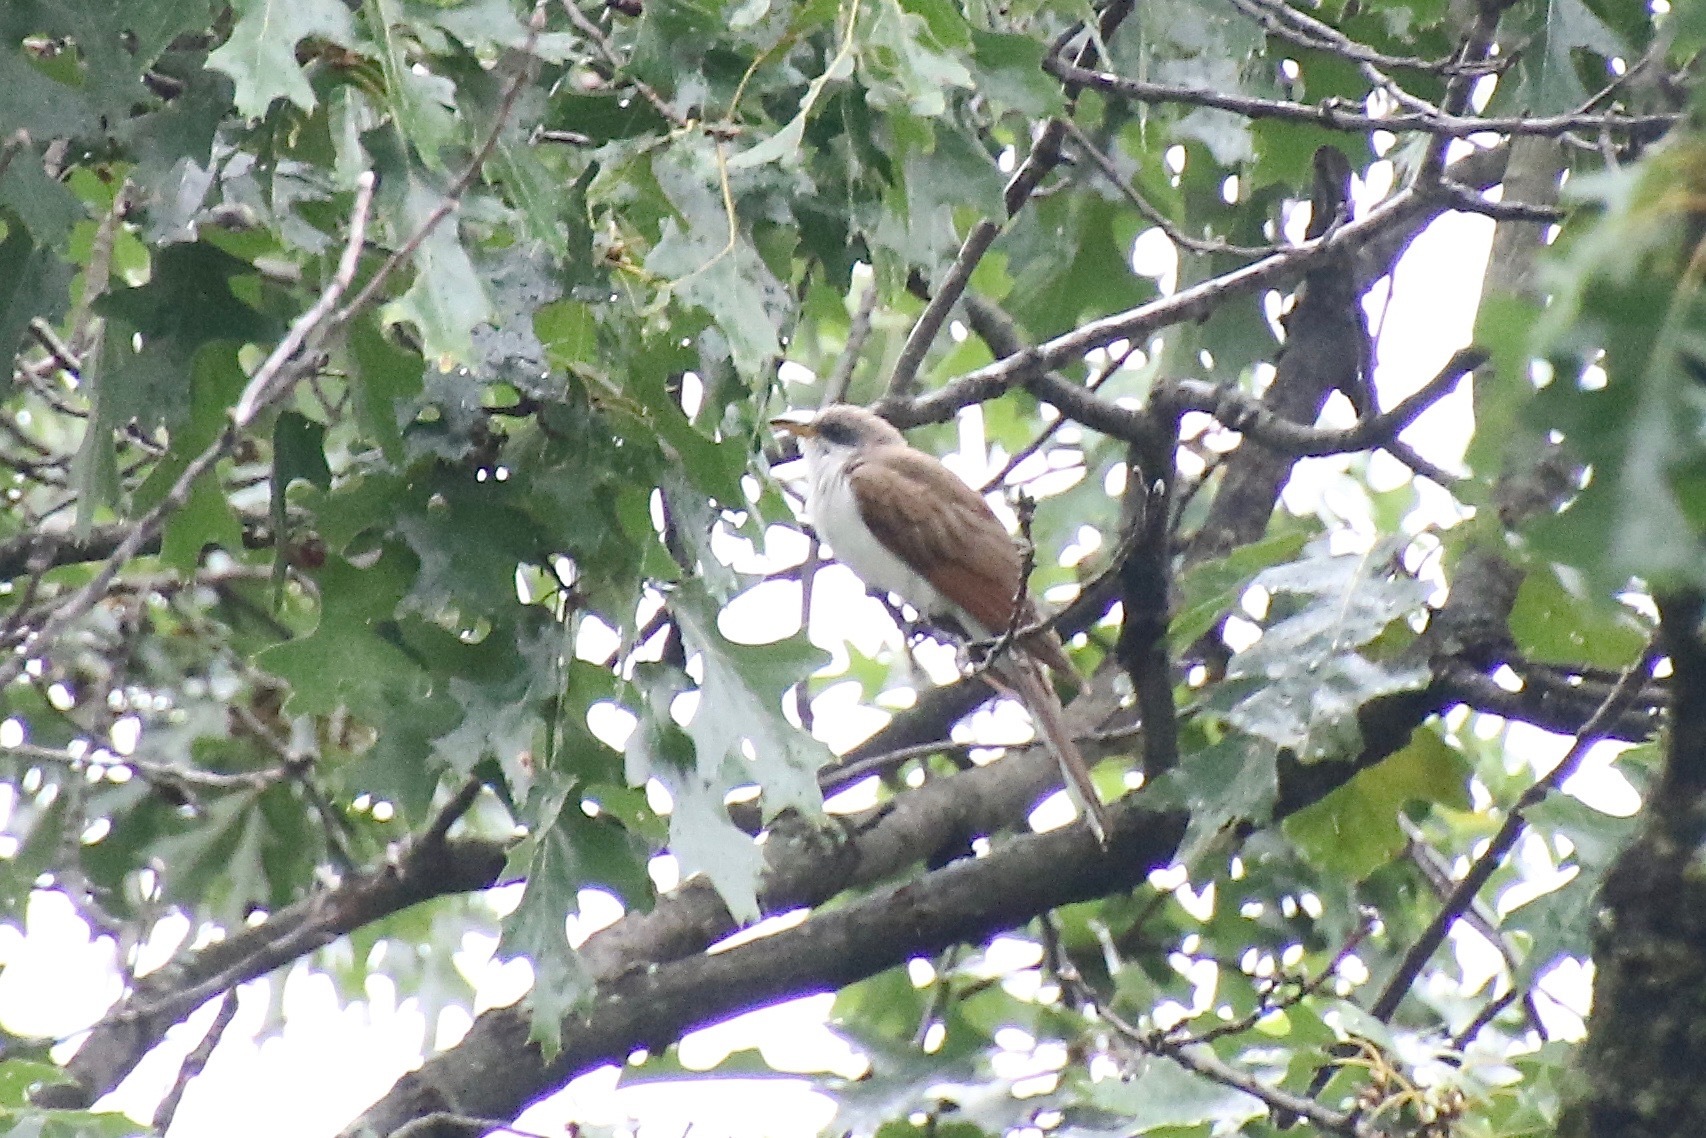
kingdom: Animalia
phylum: Chordata
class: Aves
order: Cuculiformes
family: Cuculidae
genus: Coccyzus
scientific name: Coccyzus americanus
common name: Yellow-billed cuckoo
